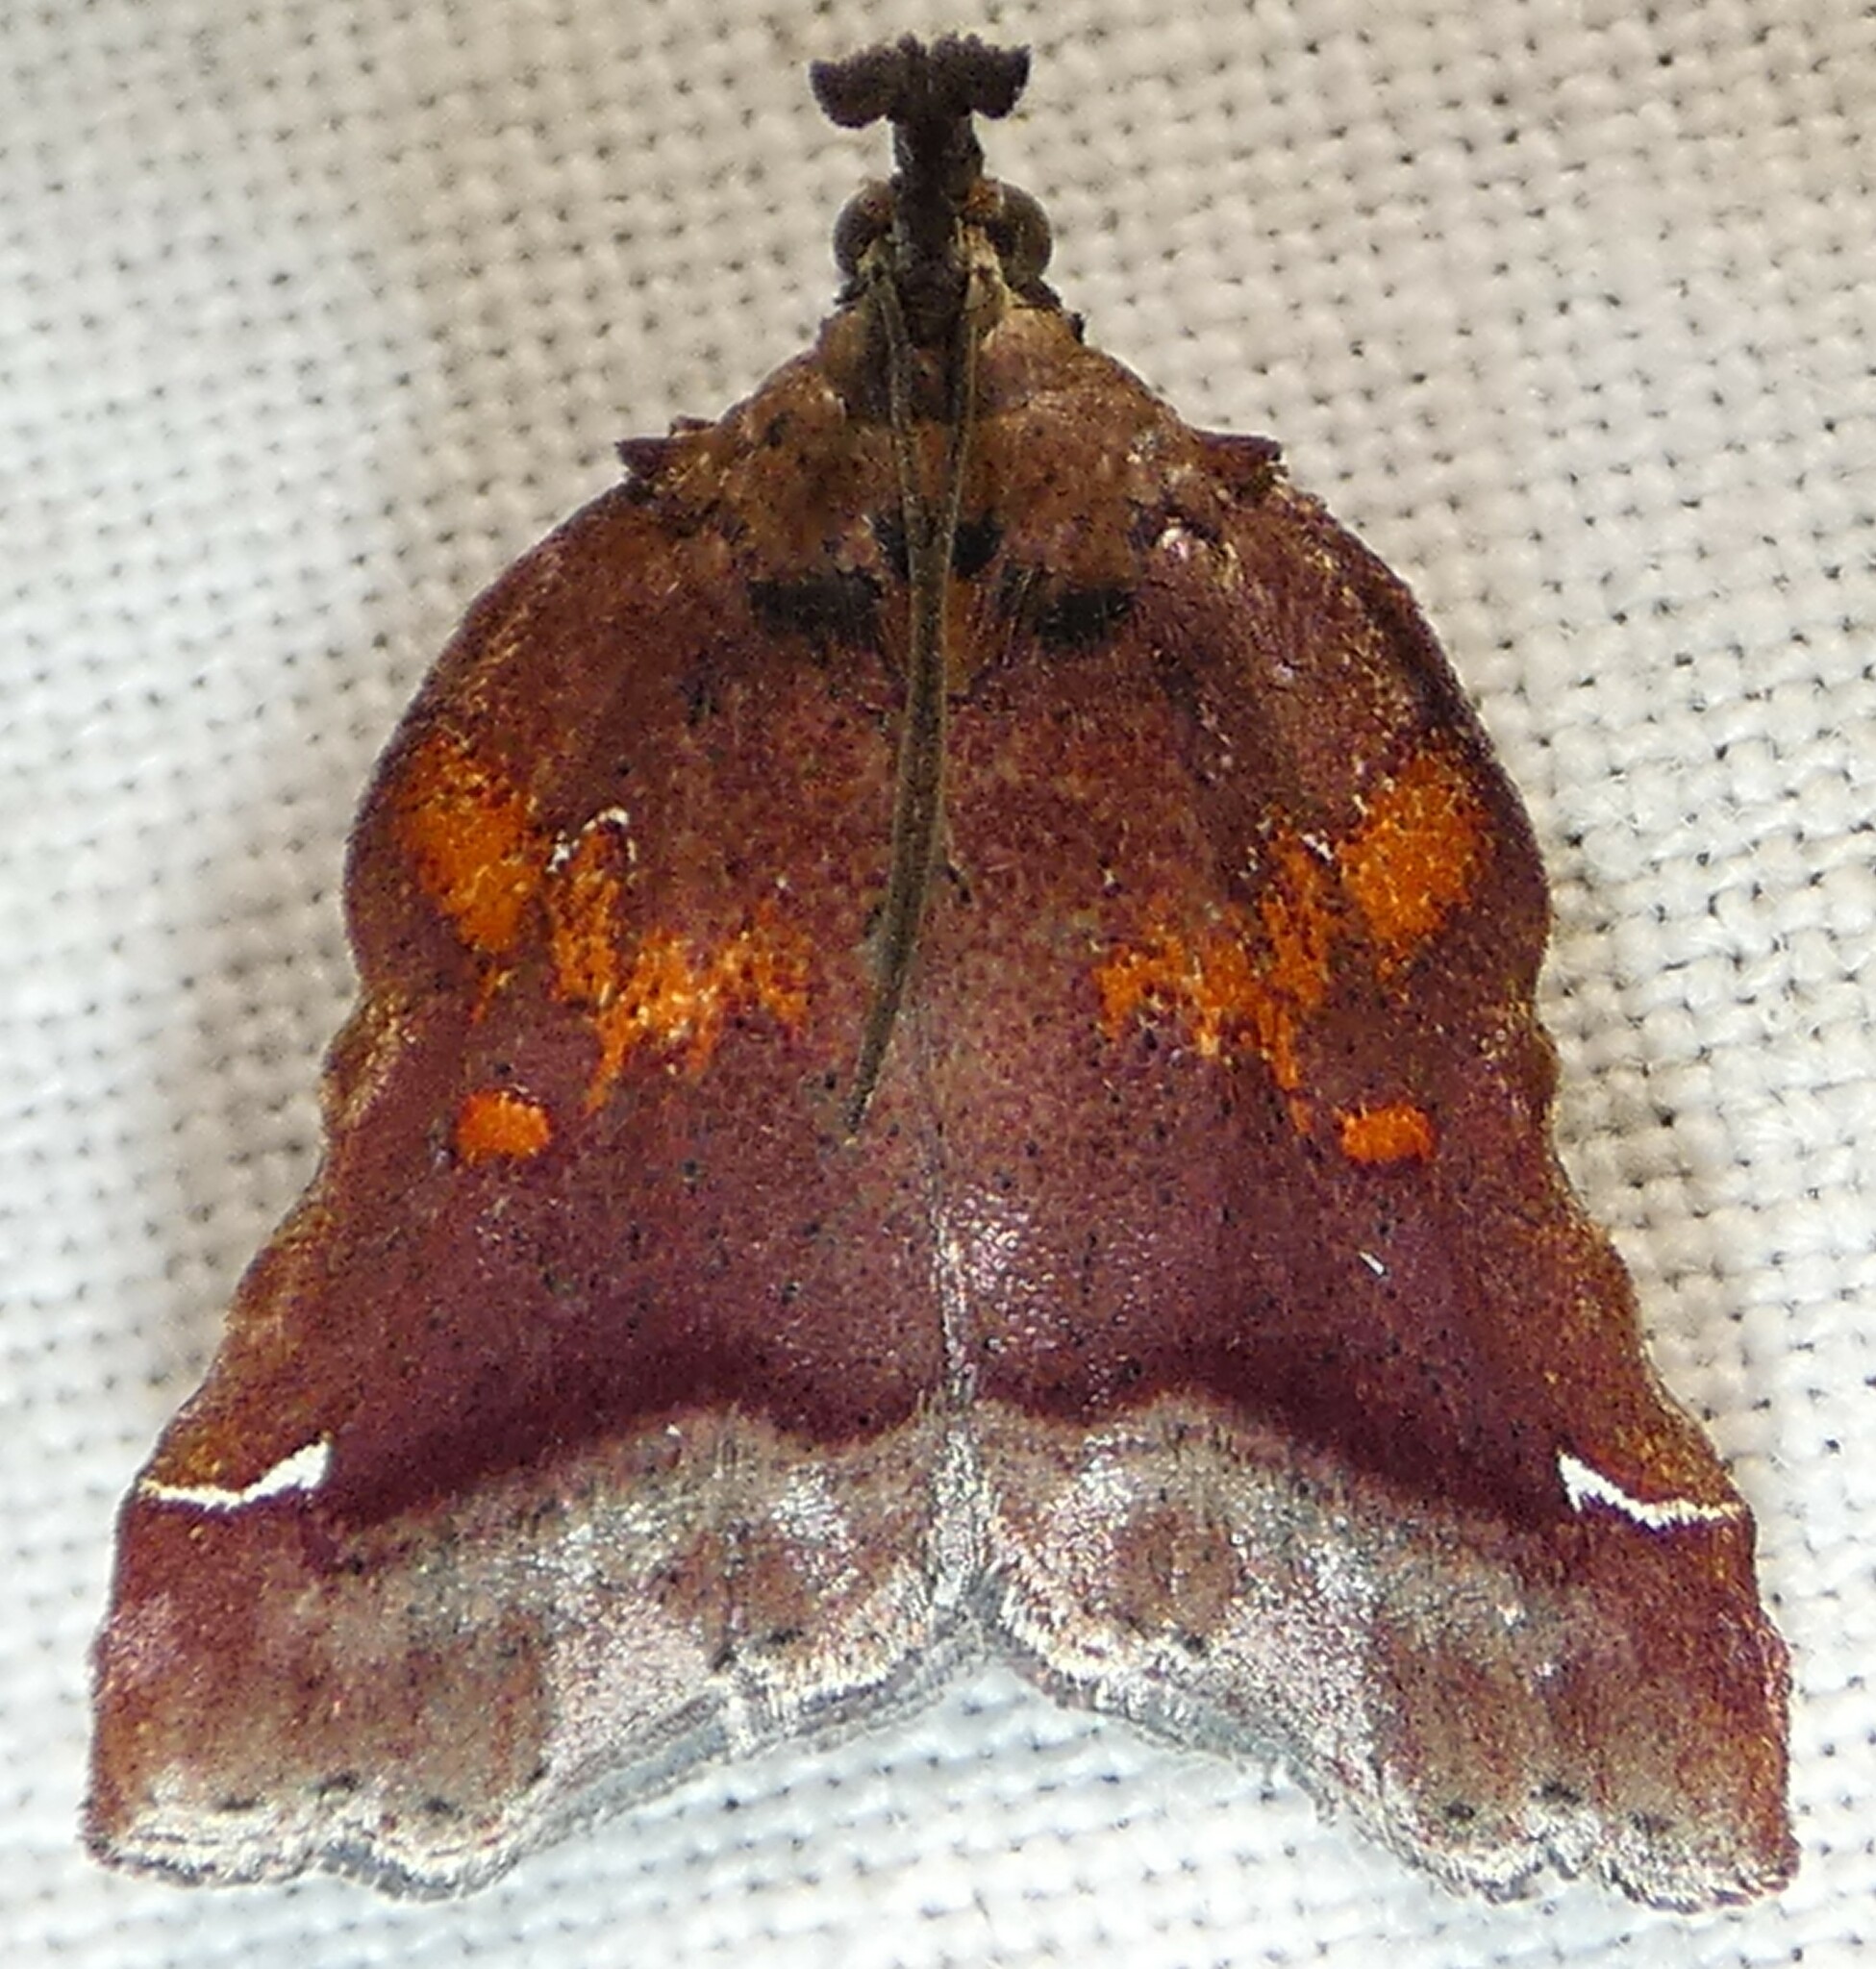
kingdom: Animalia
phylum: Arthropoda
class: Insecta
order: Lepidoptera
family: Pyralidae
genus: Clydonopteron
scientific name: Clydonopteron sacculana
